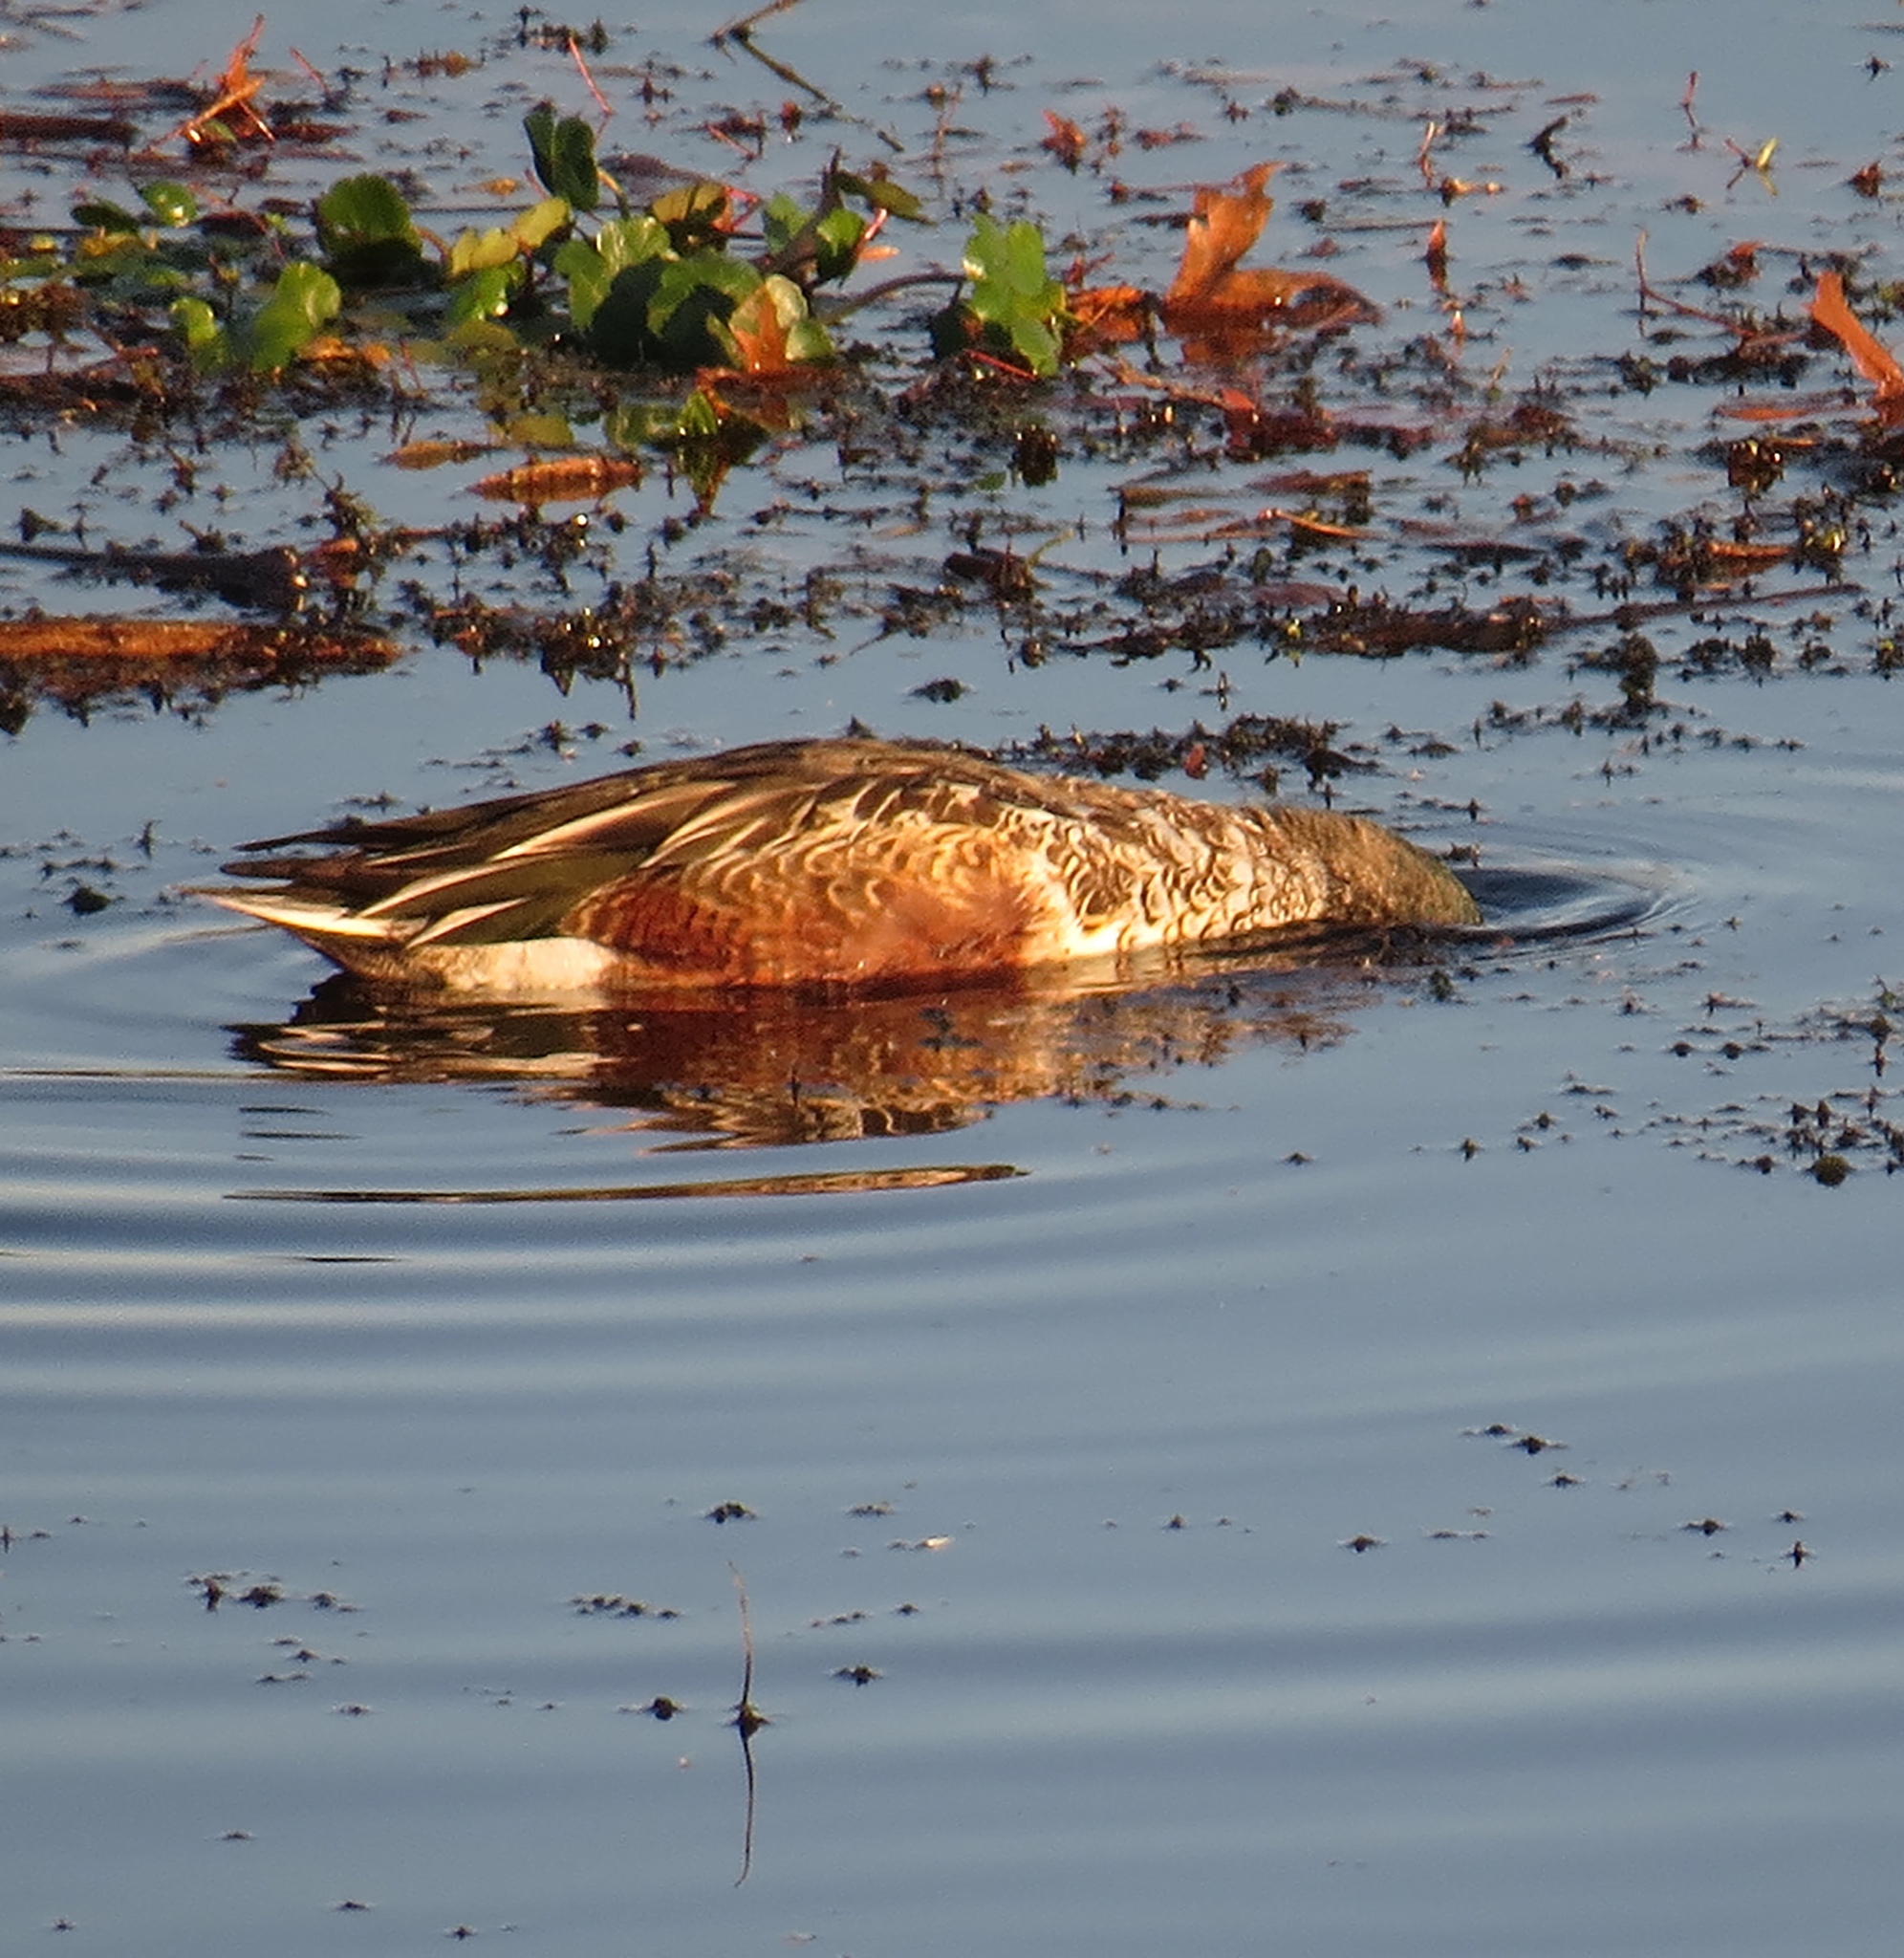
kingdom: Animalia
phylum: Chordata
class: Aves
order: Anseriformes
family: Anatidae
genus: Spatula
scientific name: Spatula clypeata
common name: Northern shoveler
